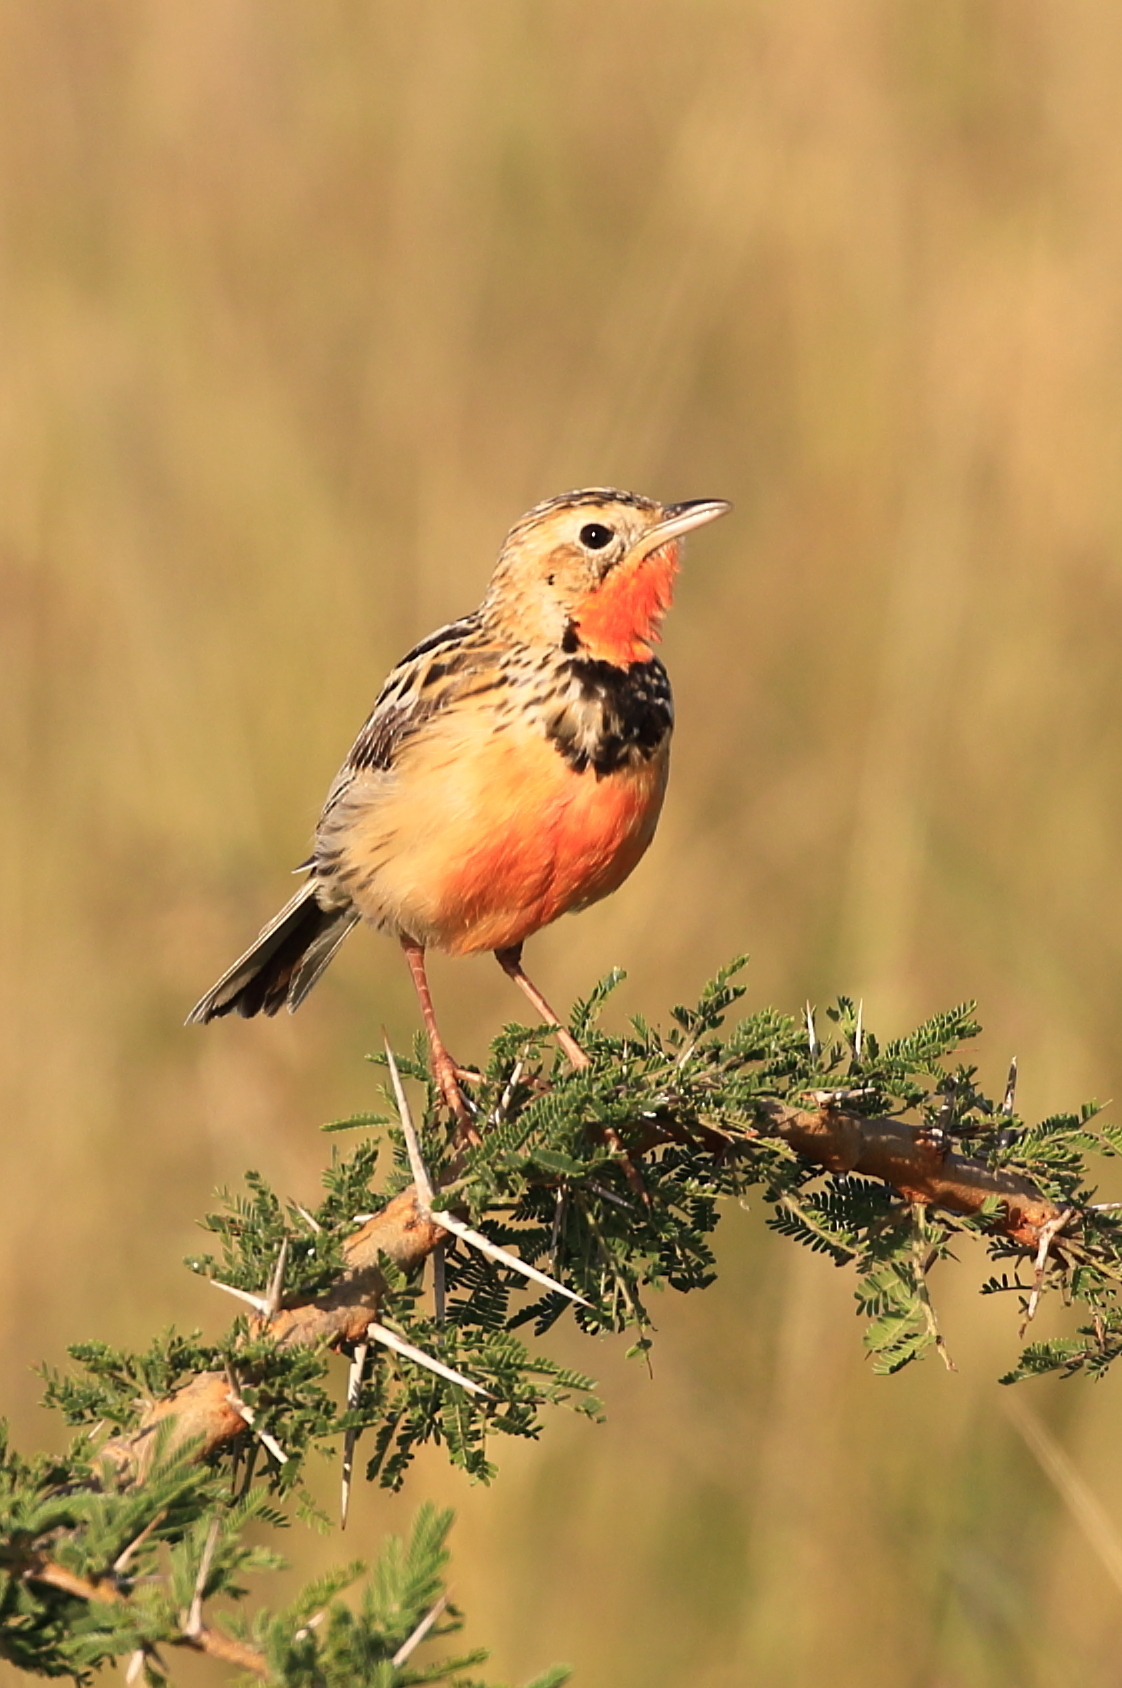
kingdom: Animalia
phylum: Chordata
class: Aves
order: Passeriformes
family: Motacillidae
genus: Macronyx
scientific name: Macronyx ameliae
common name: Rosy-throated longclaw
